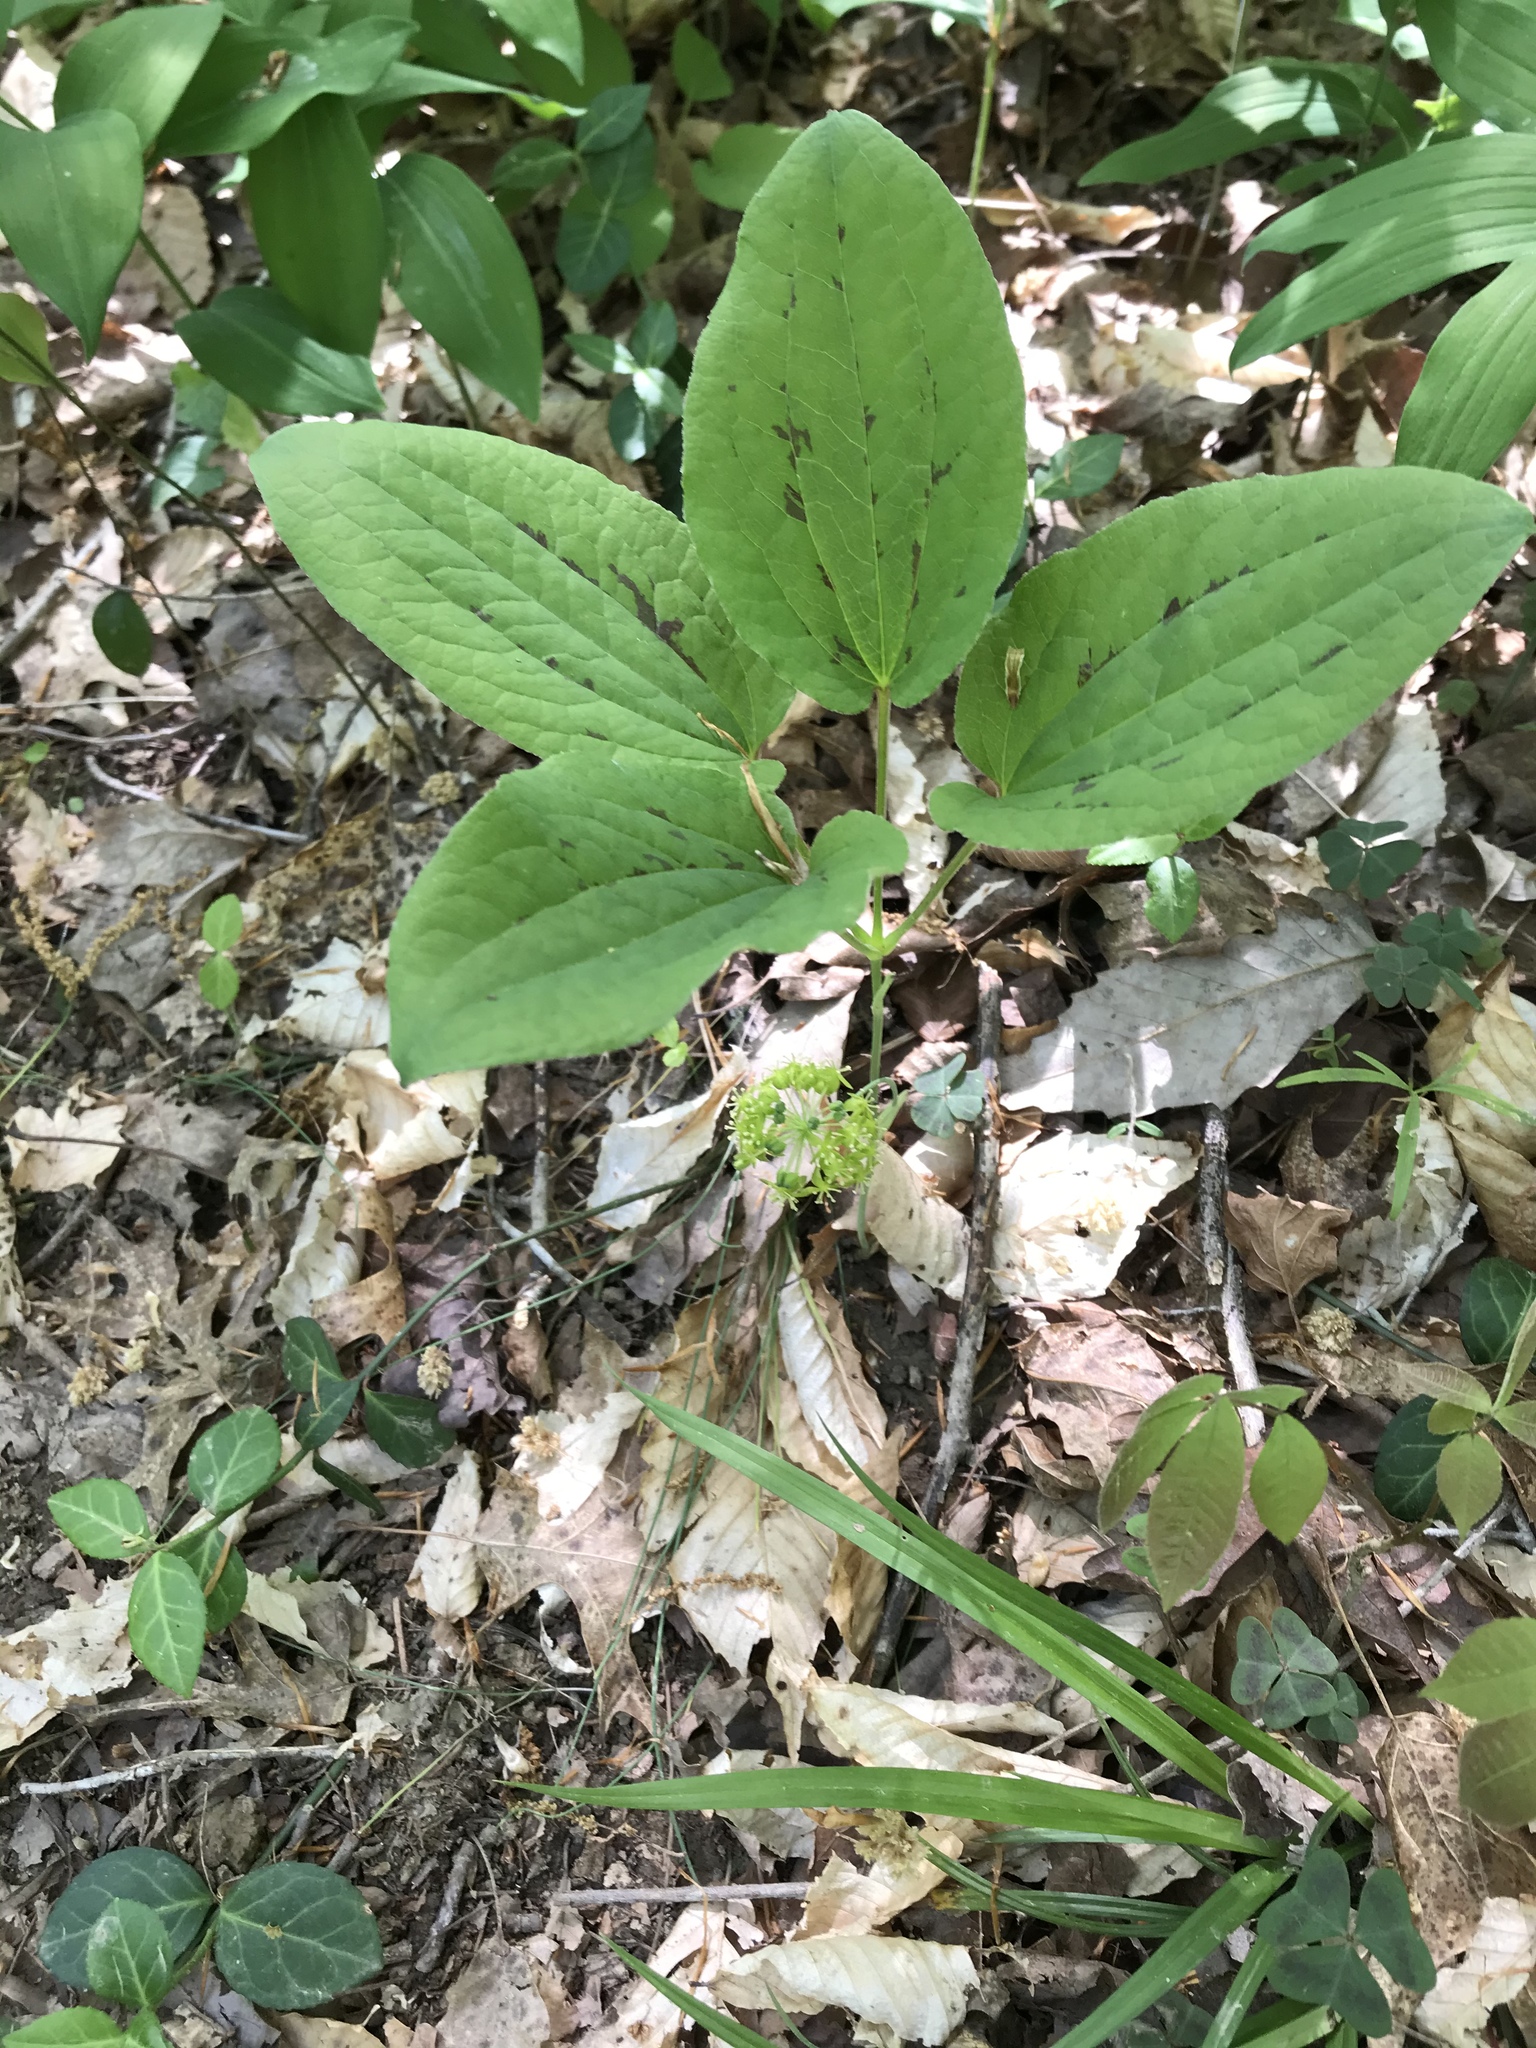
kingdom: Plantae
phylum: Tracheophyta
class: Liliopsida
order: Liliales
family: Smilacaceae
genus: Smilax
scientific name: Smilax ecirrhata
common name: Upright carrionflower
